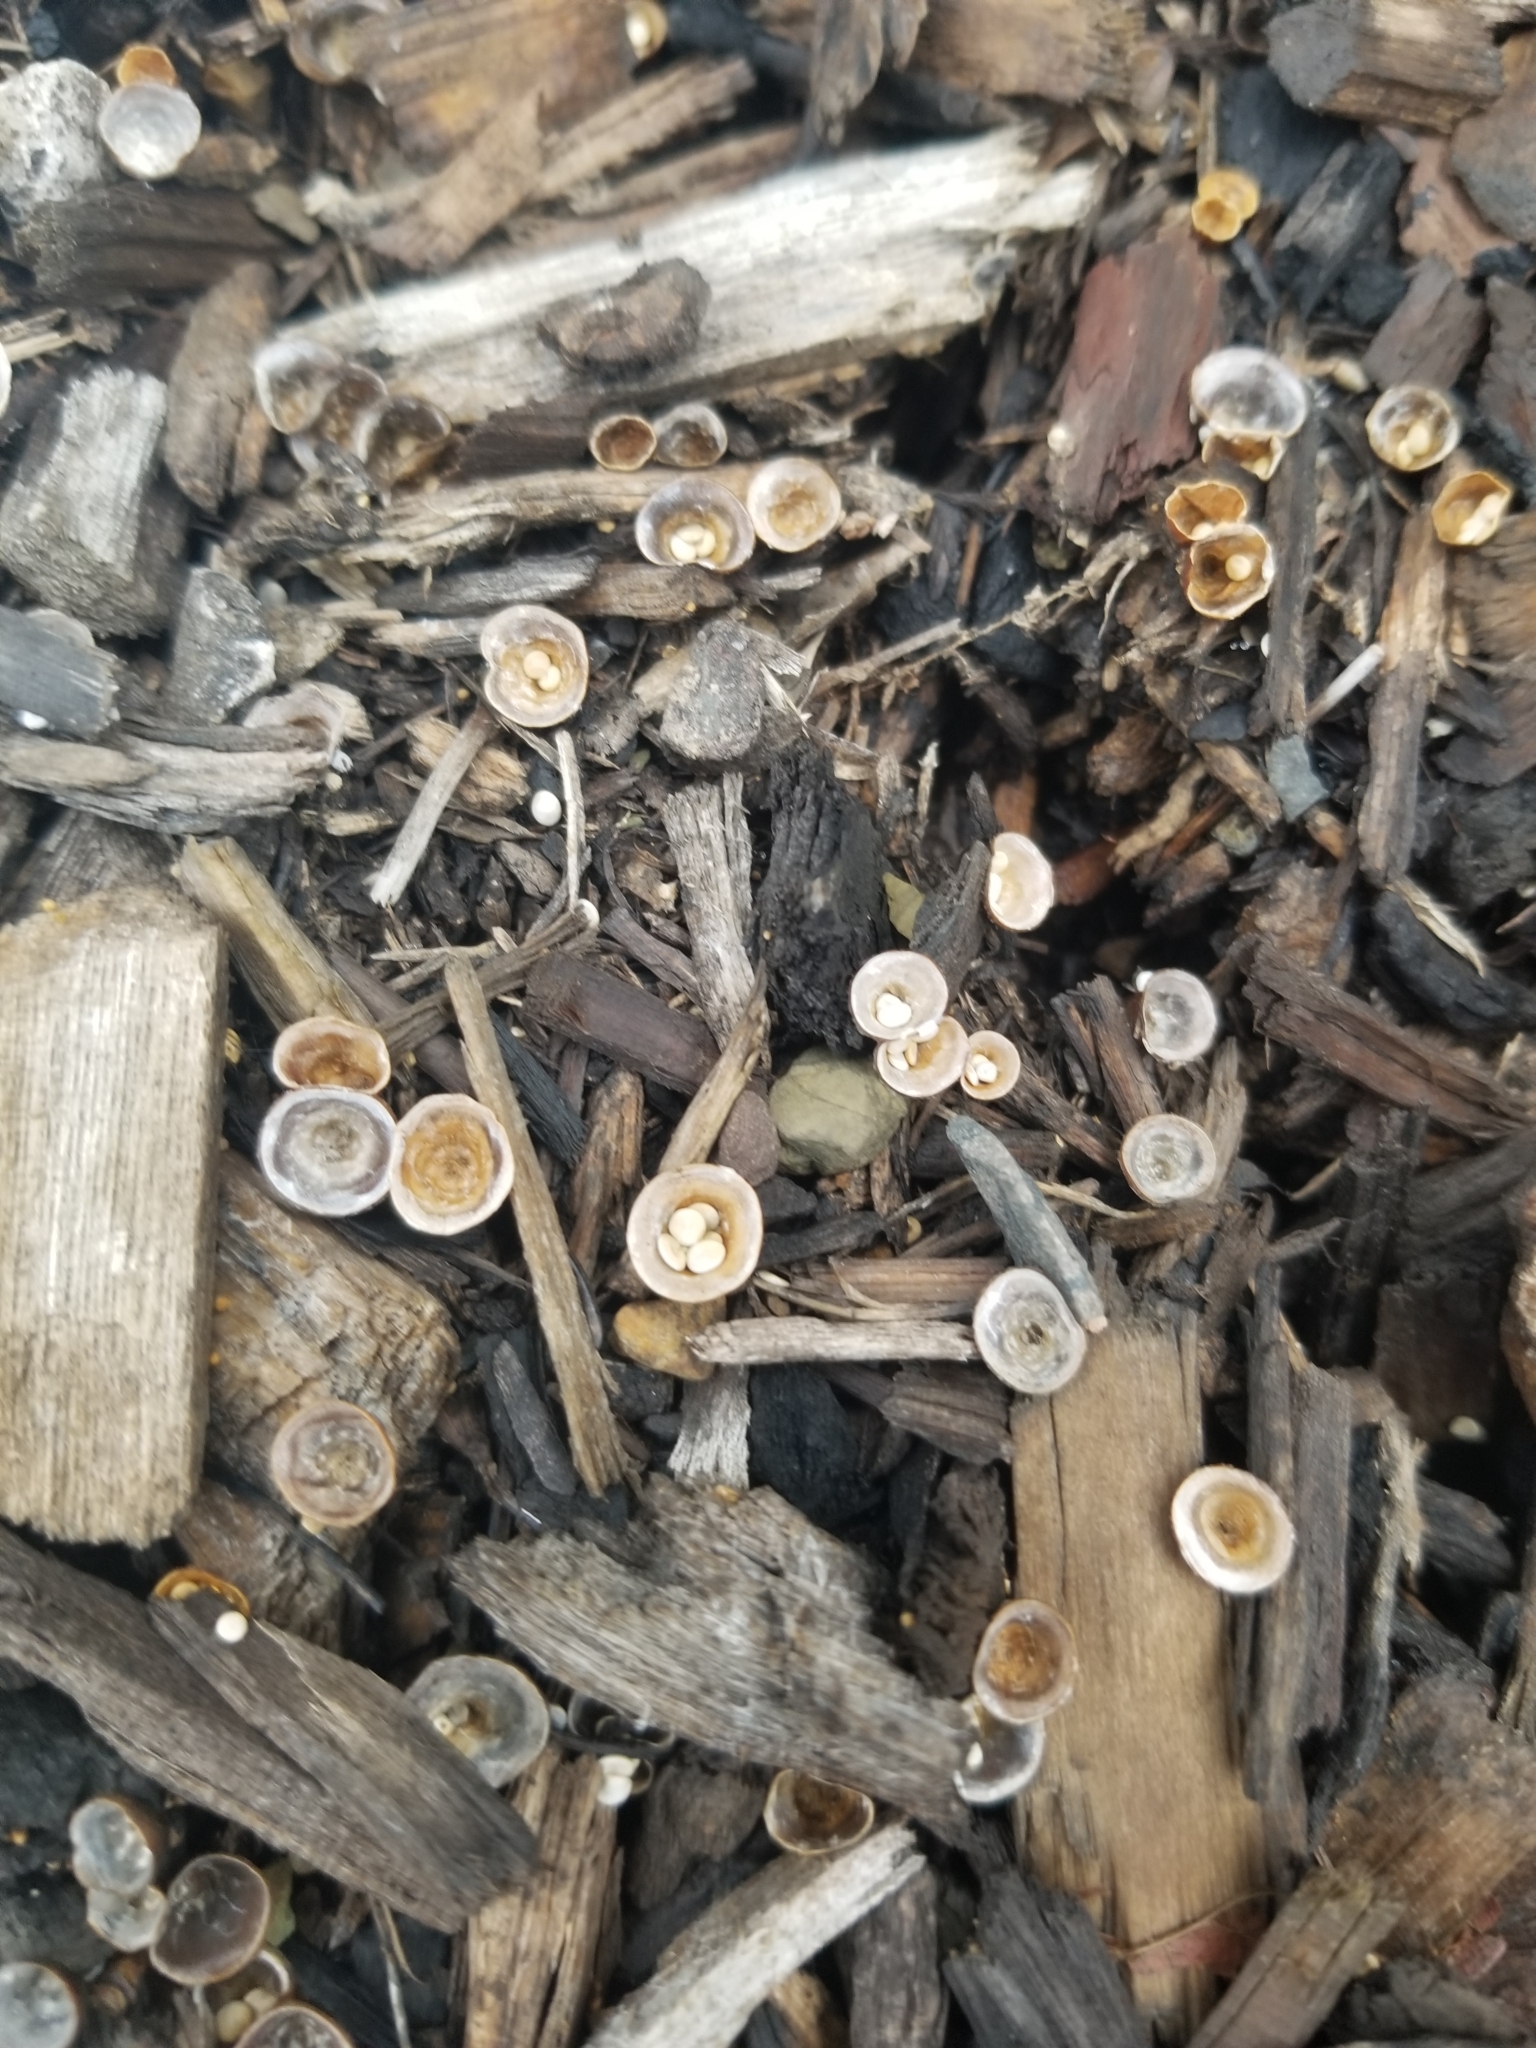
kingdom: Fungi
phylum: Basidiomycota
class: Agaricomycetes
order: Agaricales
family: Nidulariaceae
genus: Crucibulum
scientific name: Crucibulum laeve
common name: Common bird's nest
